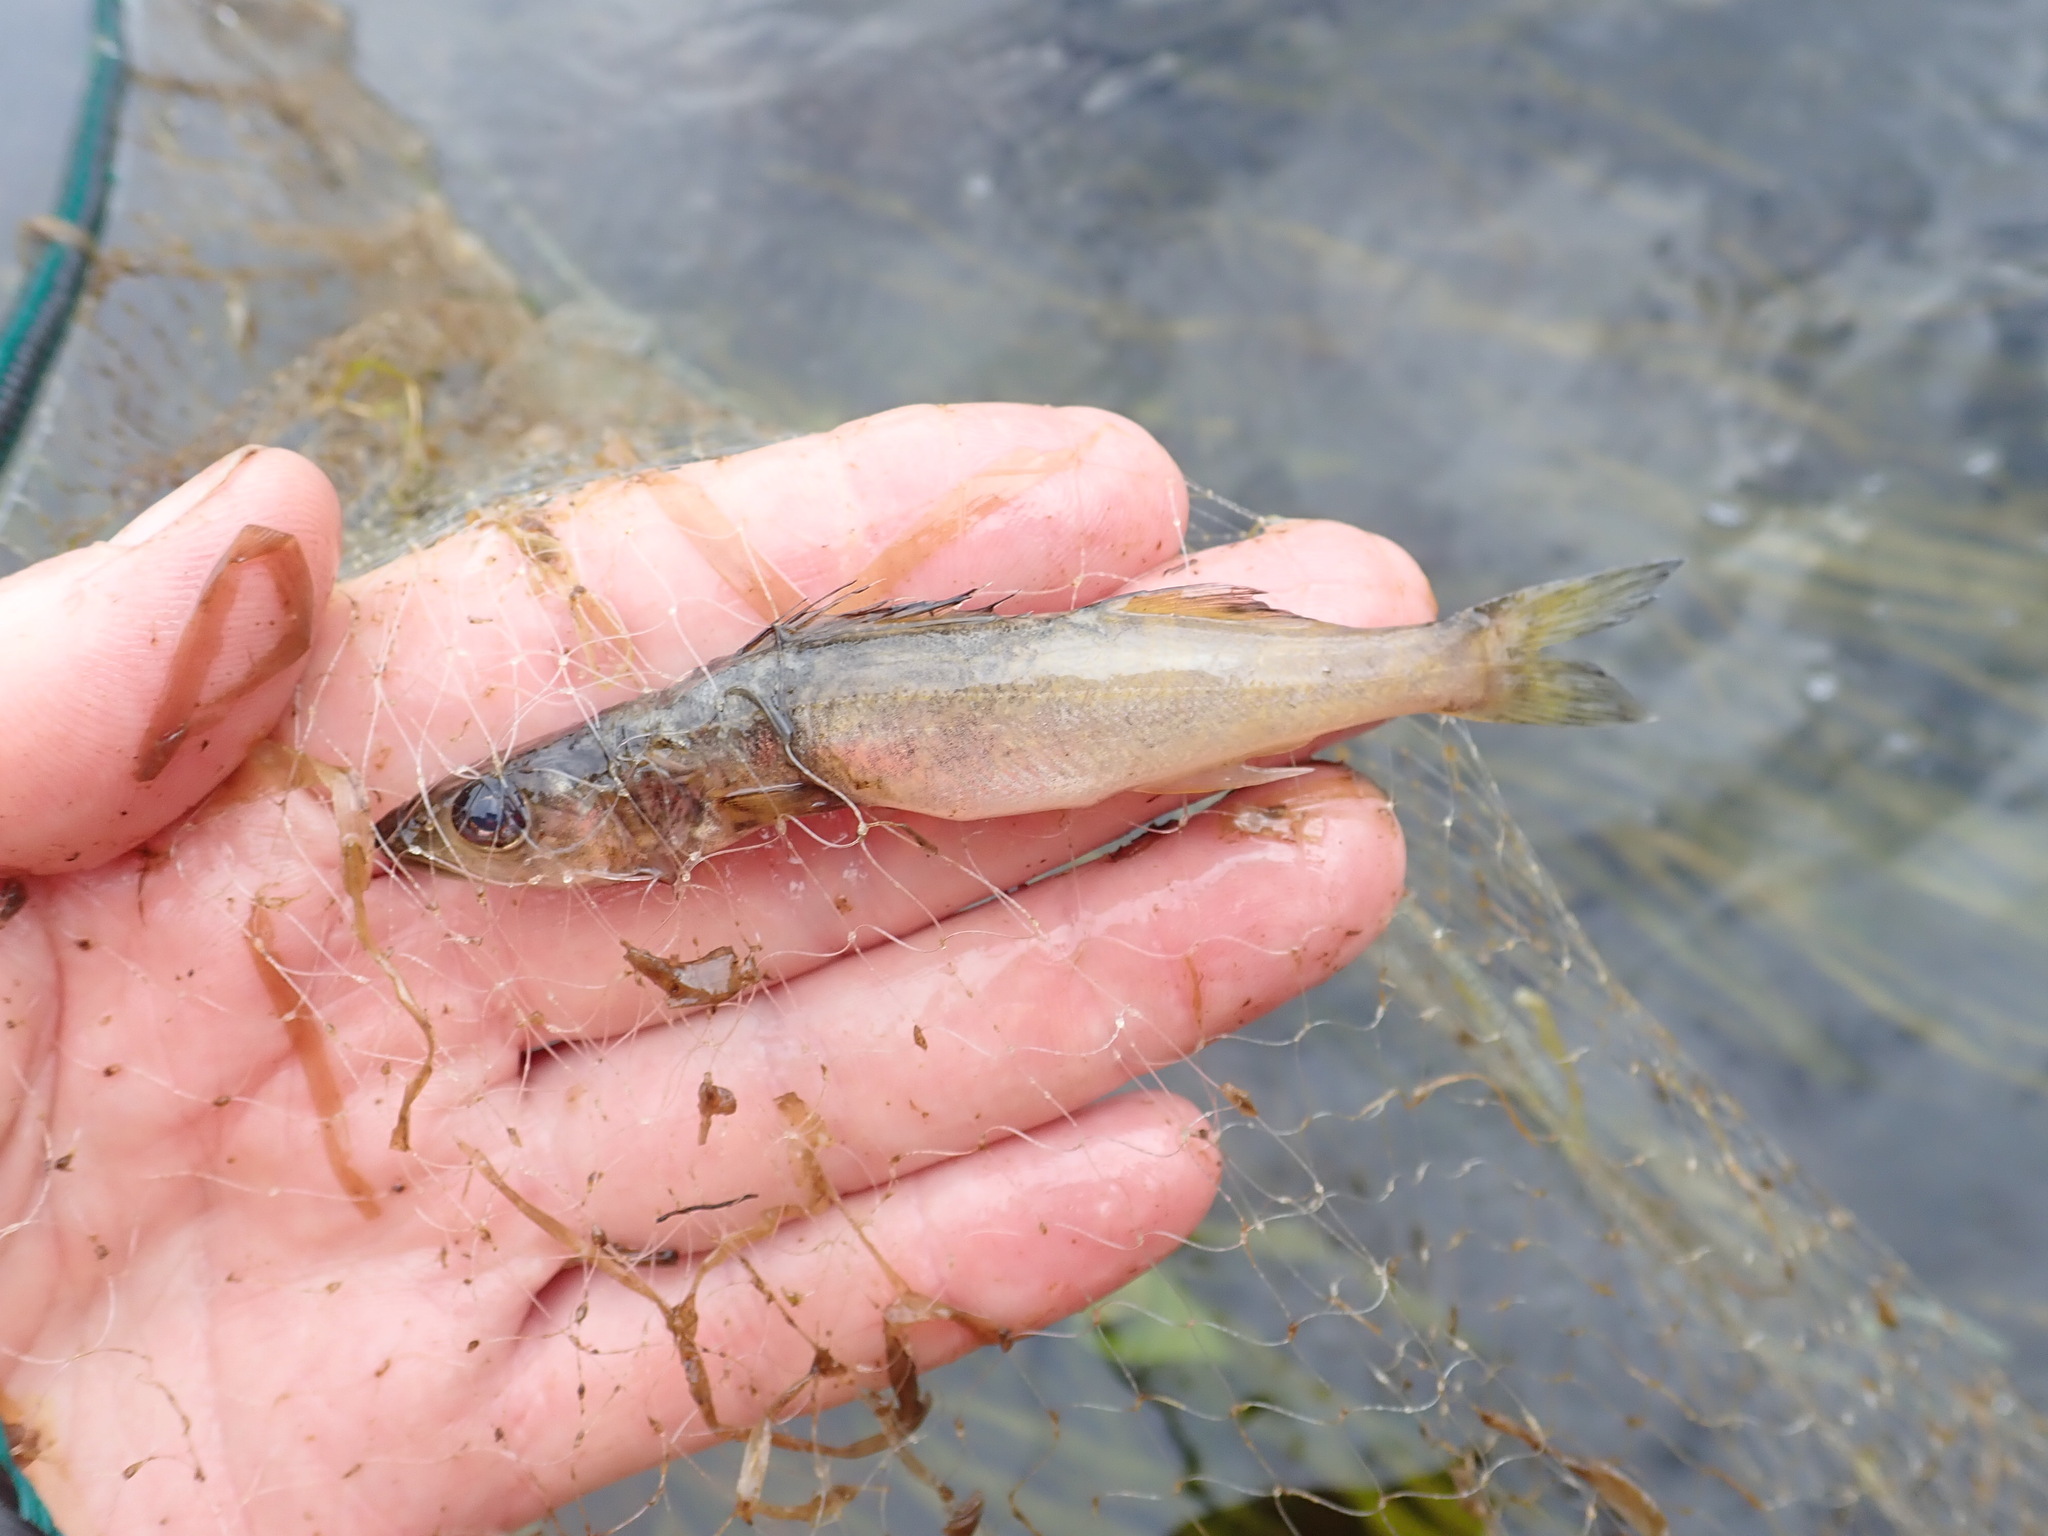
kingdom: Animalia
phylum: Chordata
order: Perciformes
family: Percidae
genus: Sander
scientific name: Sander vitreus
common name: Walleye
